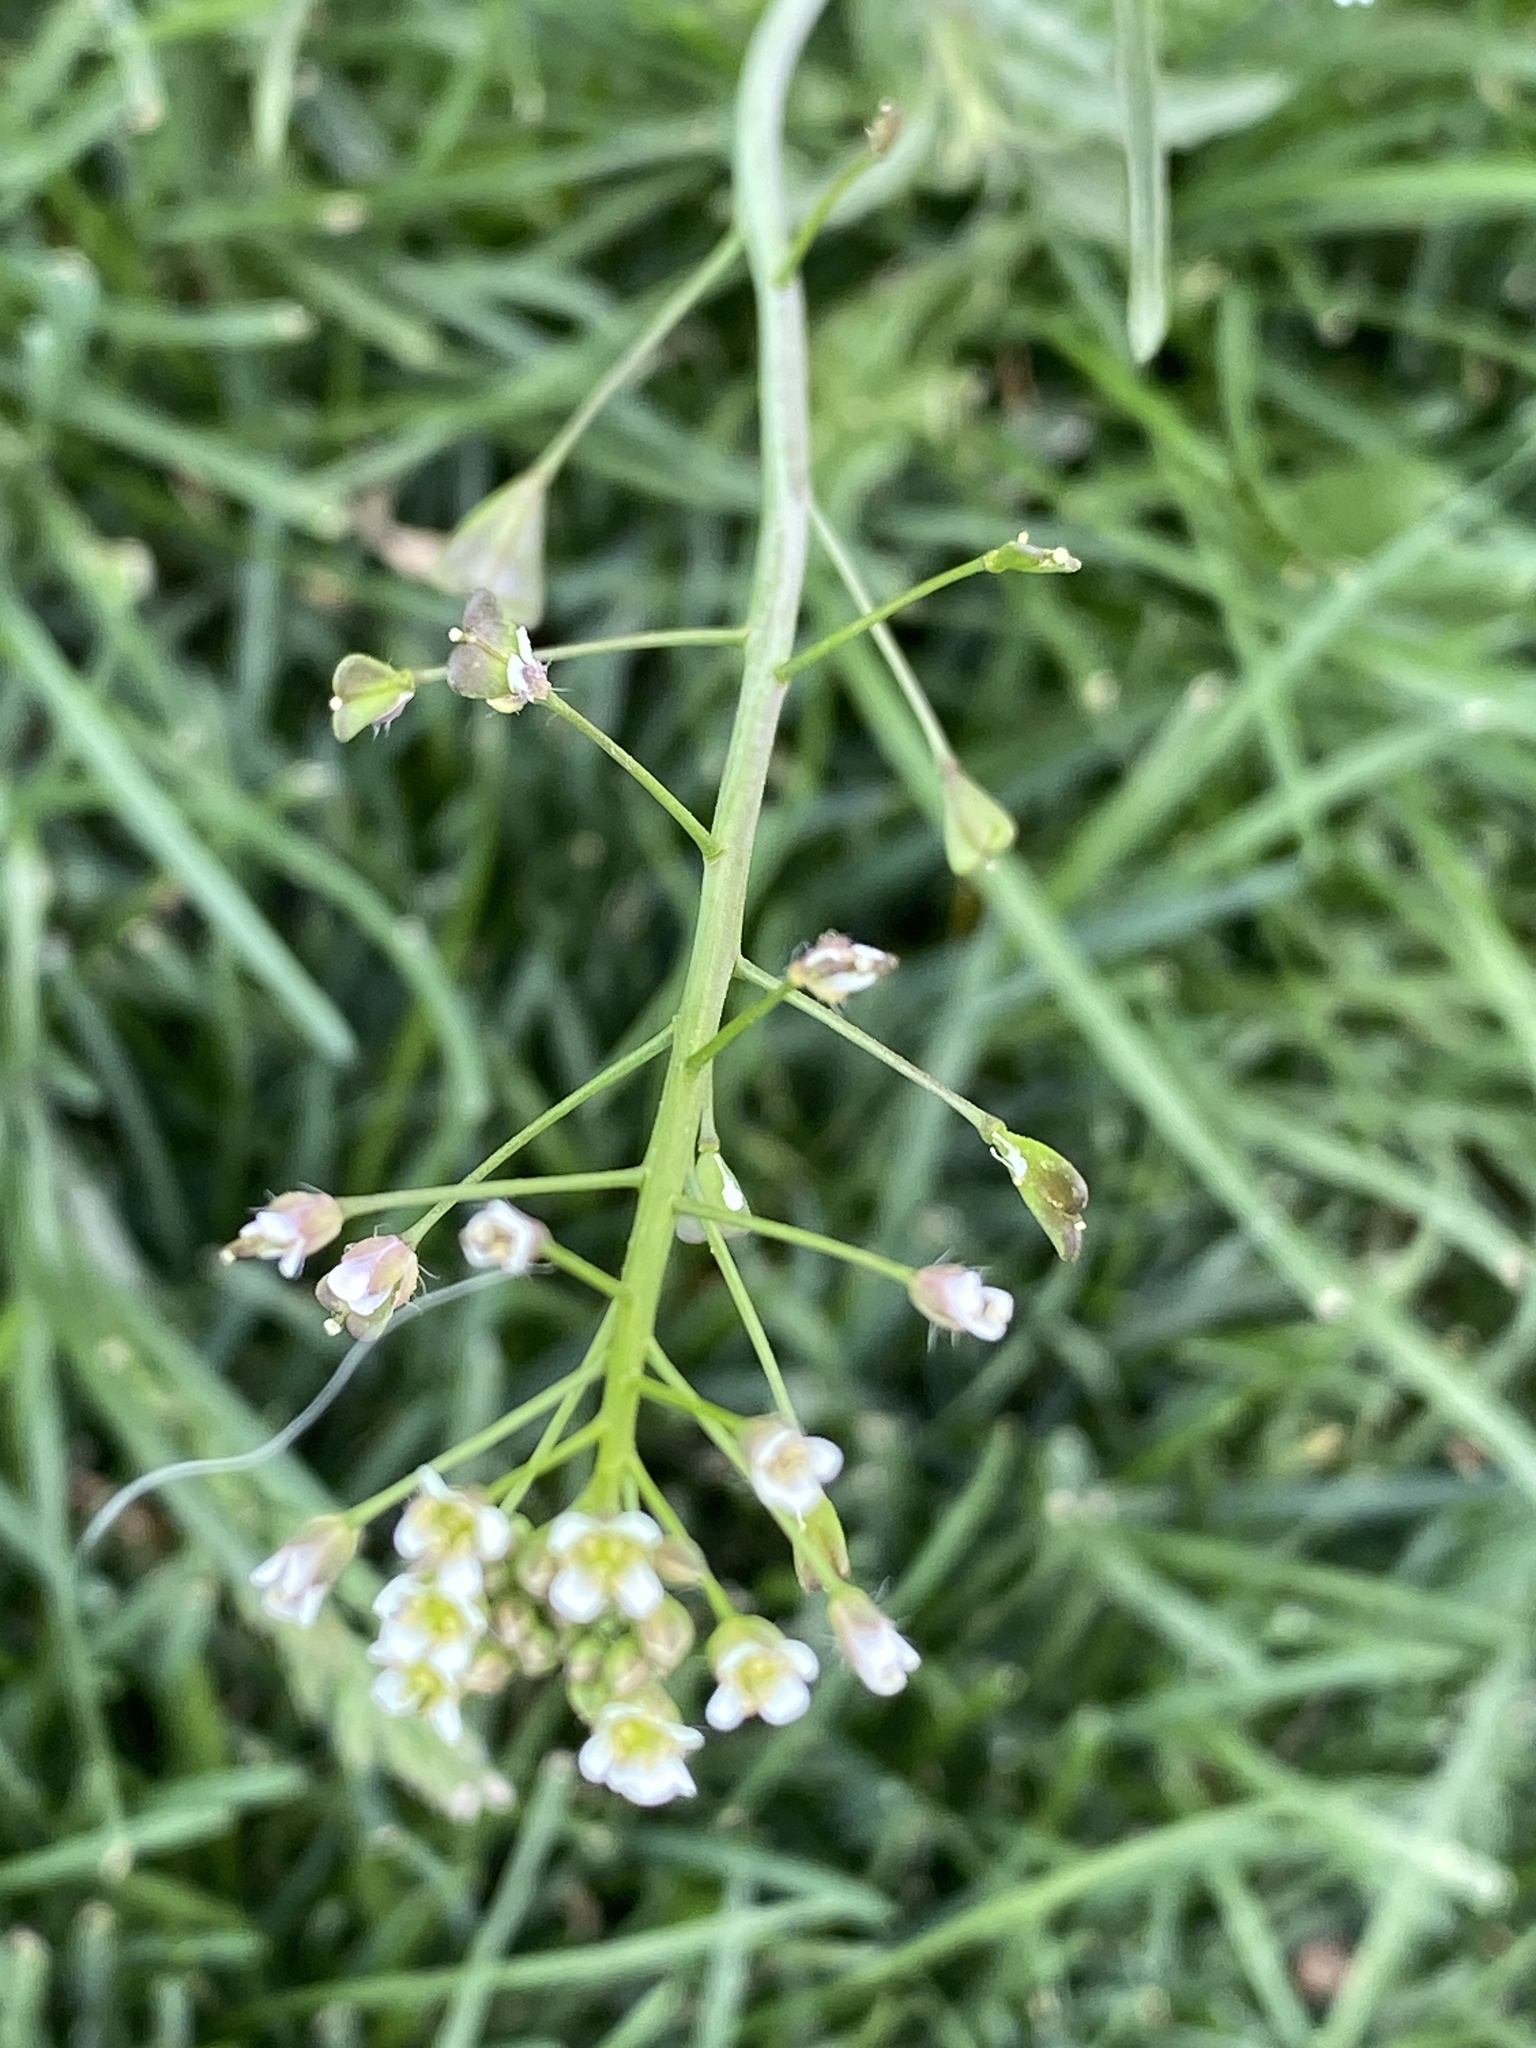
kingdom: Plantae
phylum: Tracheophyta
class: Magnoliopsida
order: Brassicales
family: Brassicaceae
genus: Capsella
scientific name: Capsella bursa-pastoris
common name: Shepherd's purse
